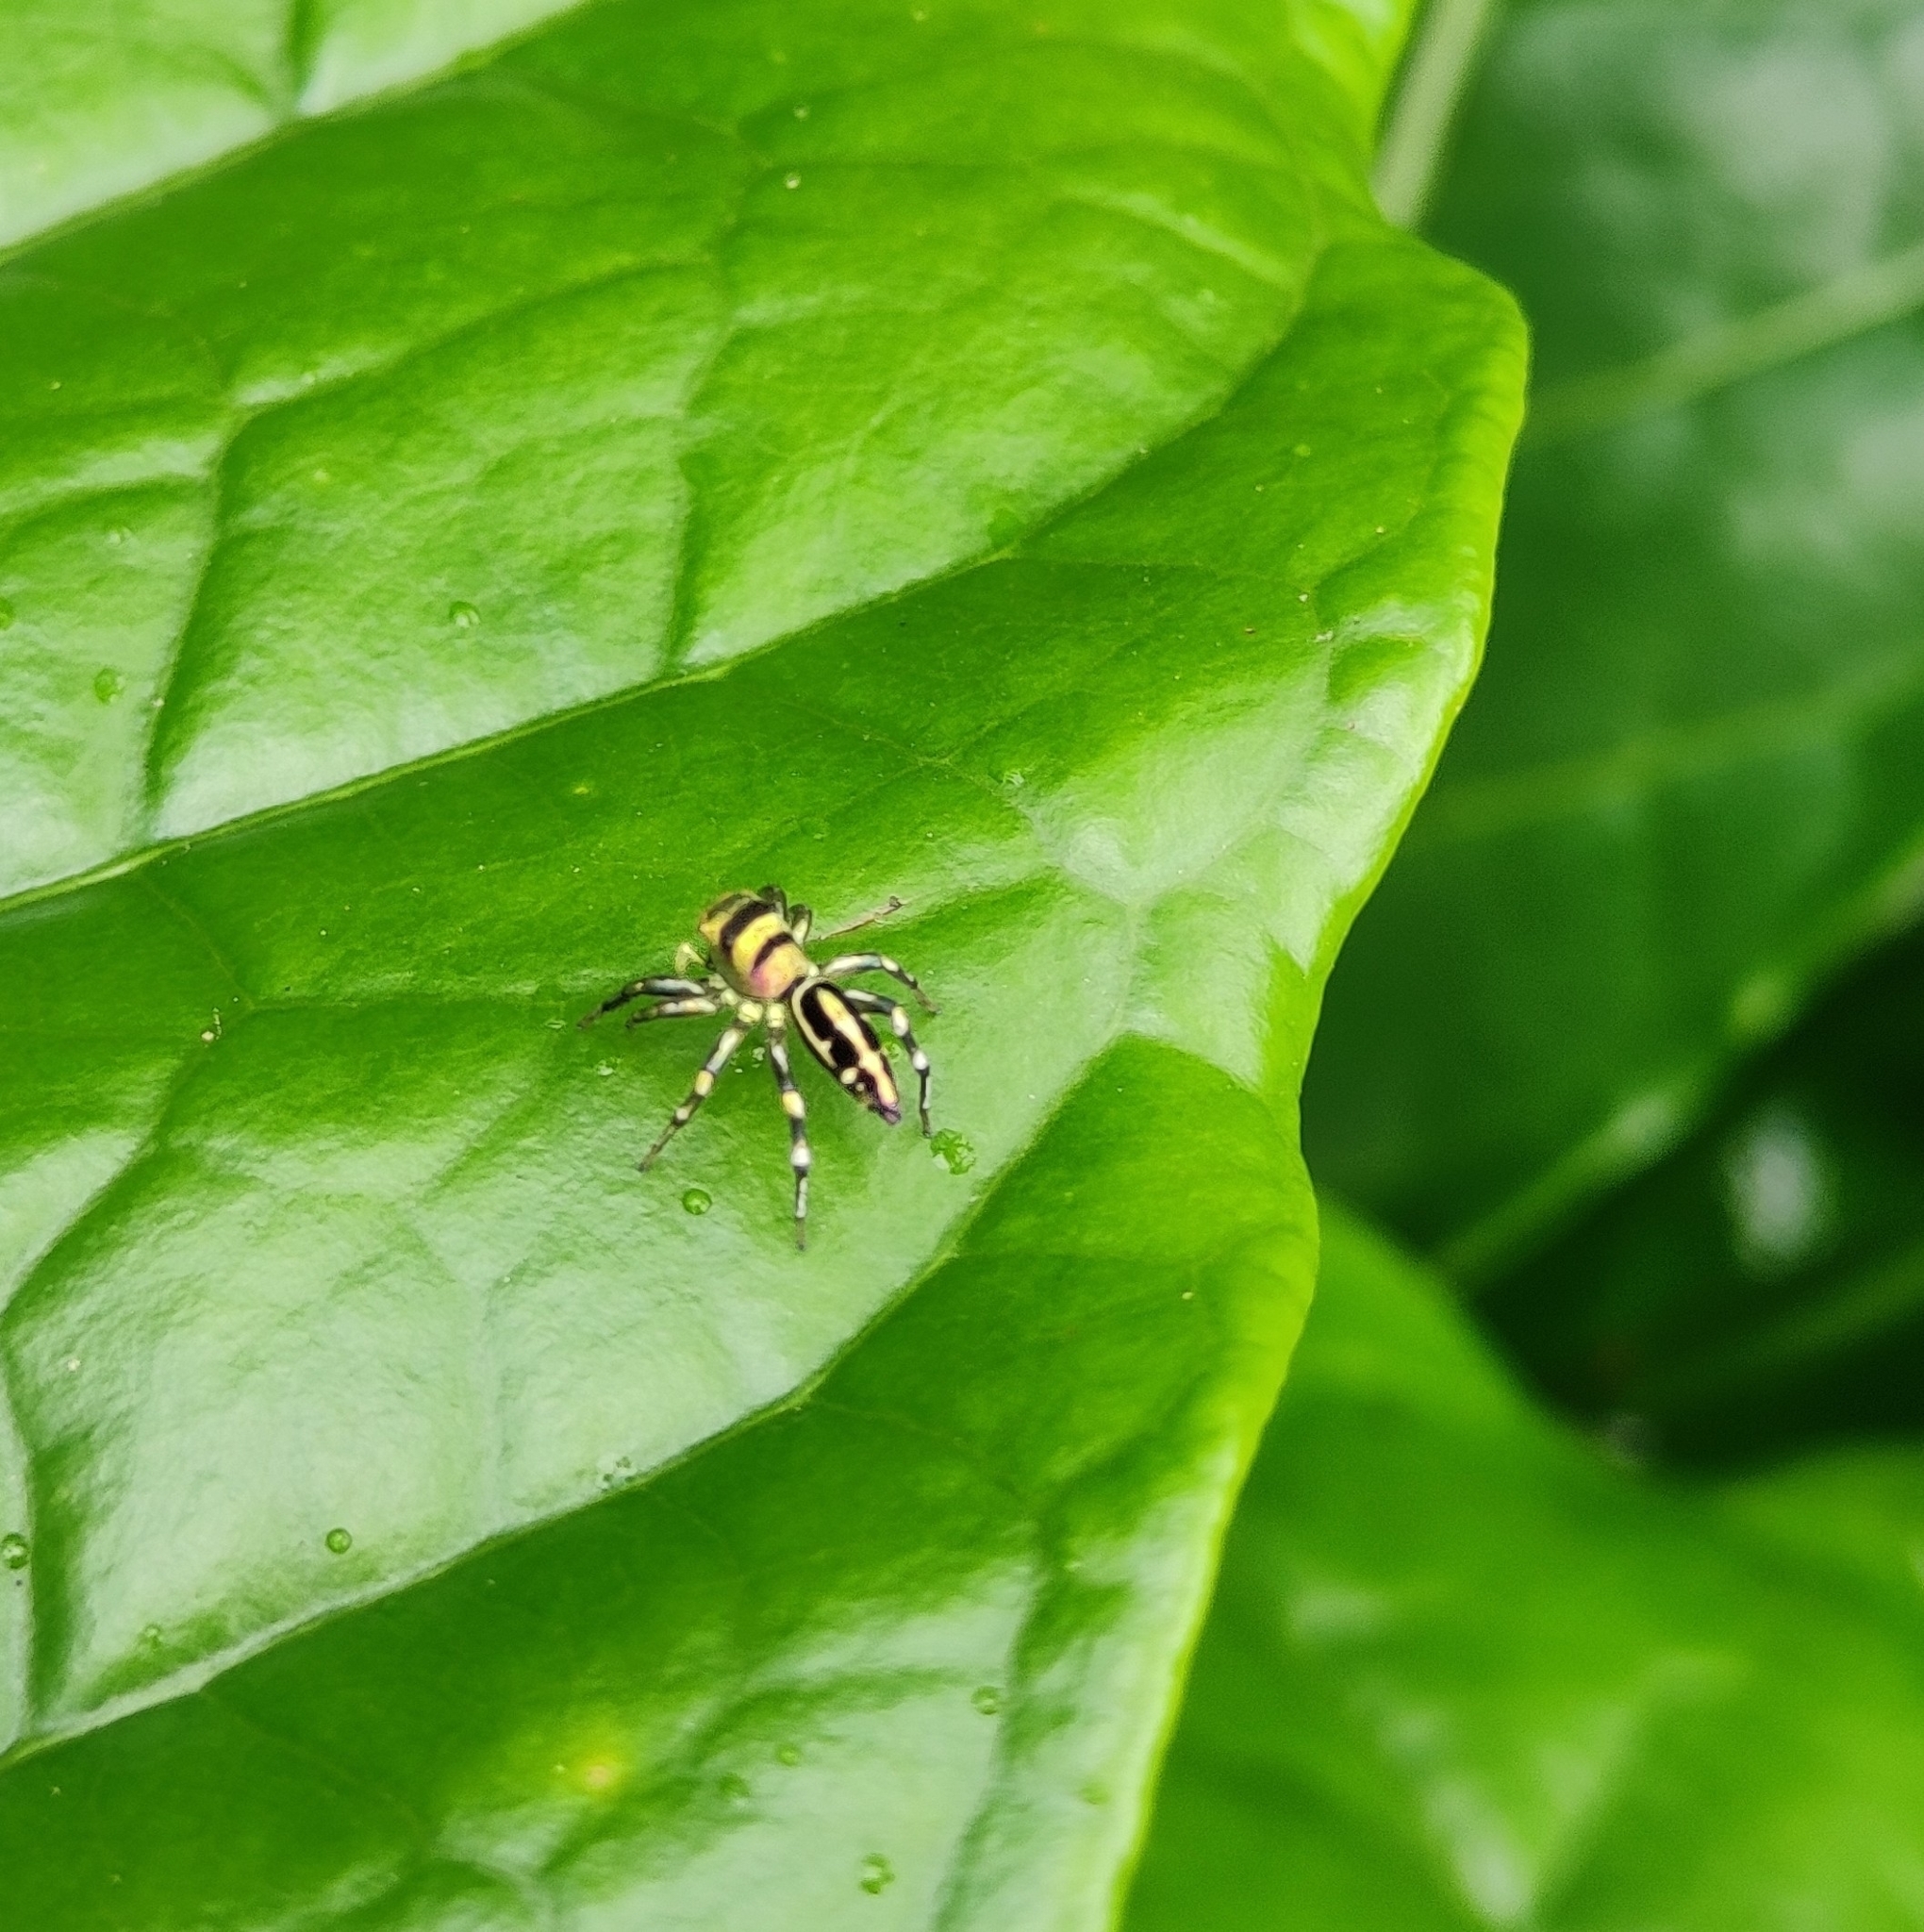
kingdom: Animalia
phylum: Arthropoda
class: Arachnida
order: Araneae
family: Salticidae
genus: Cosmophasis
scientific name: Cosmophasis thalassina
